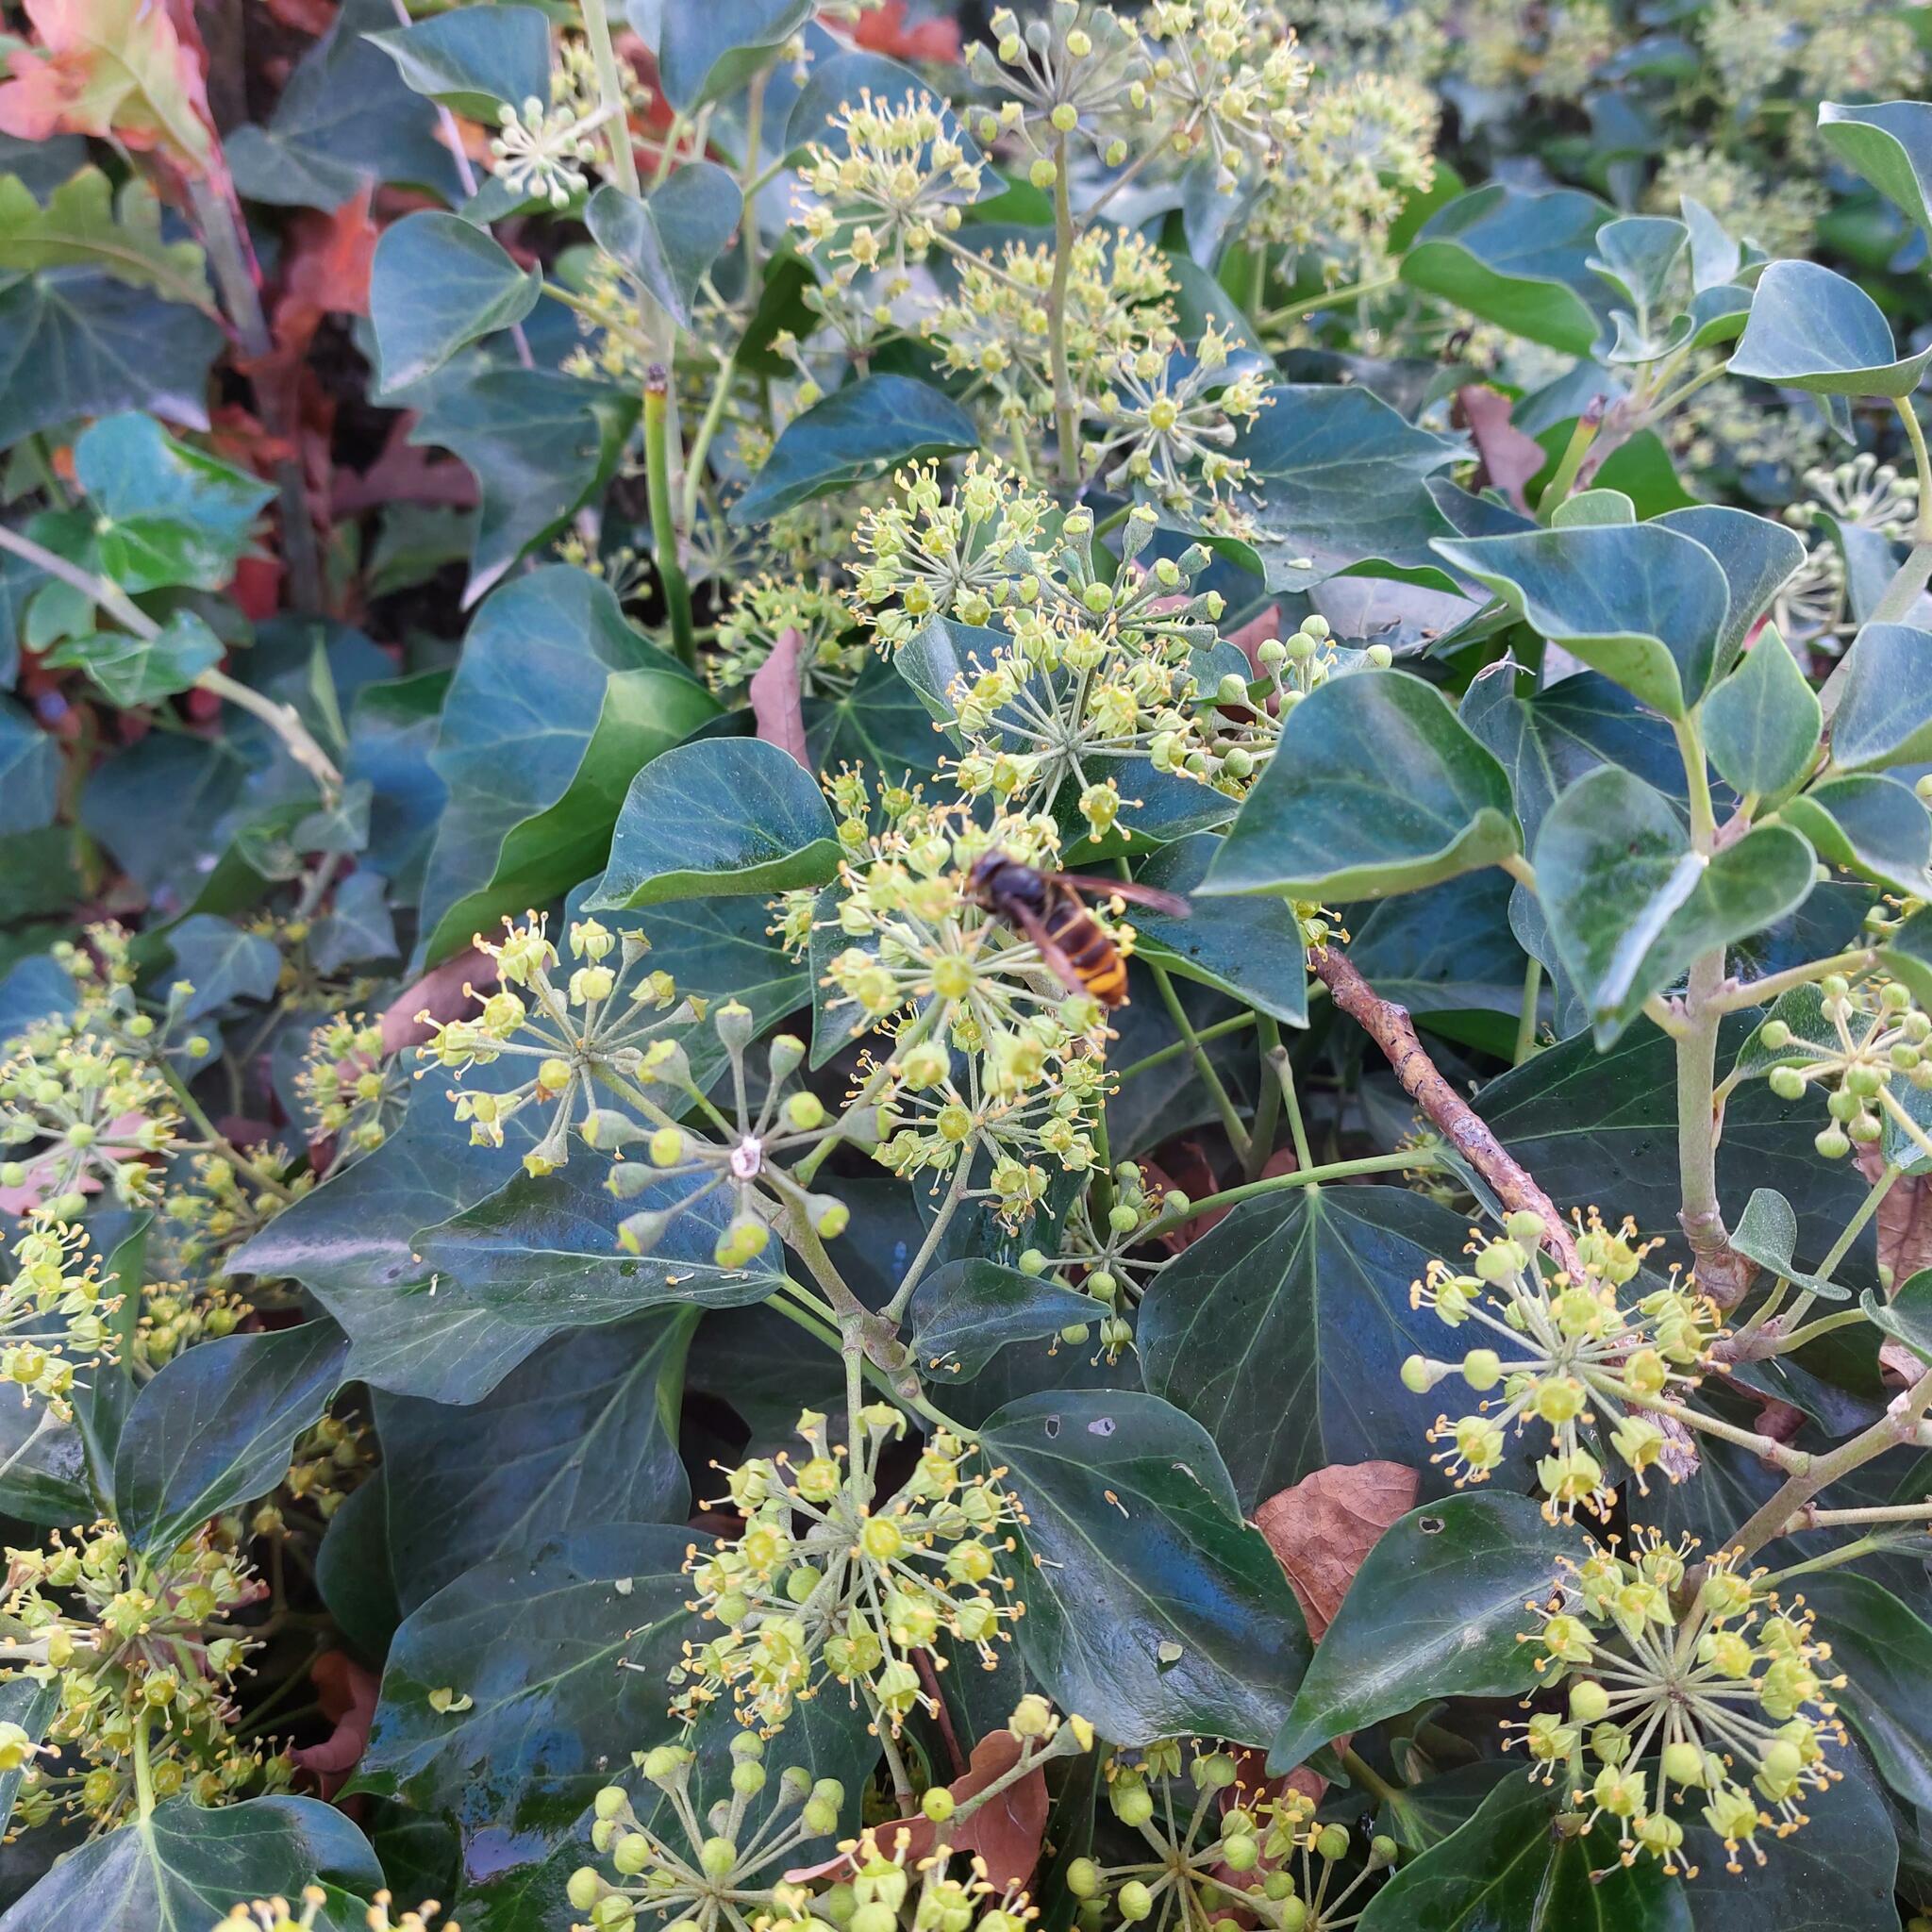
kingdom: Animalia
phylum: Arthropoda
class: Insecta
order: Hymenoptera
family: Vespidae
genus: Vespa
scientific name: Vespa velutina
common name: Asian hornet
